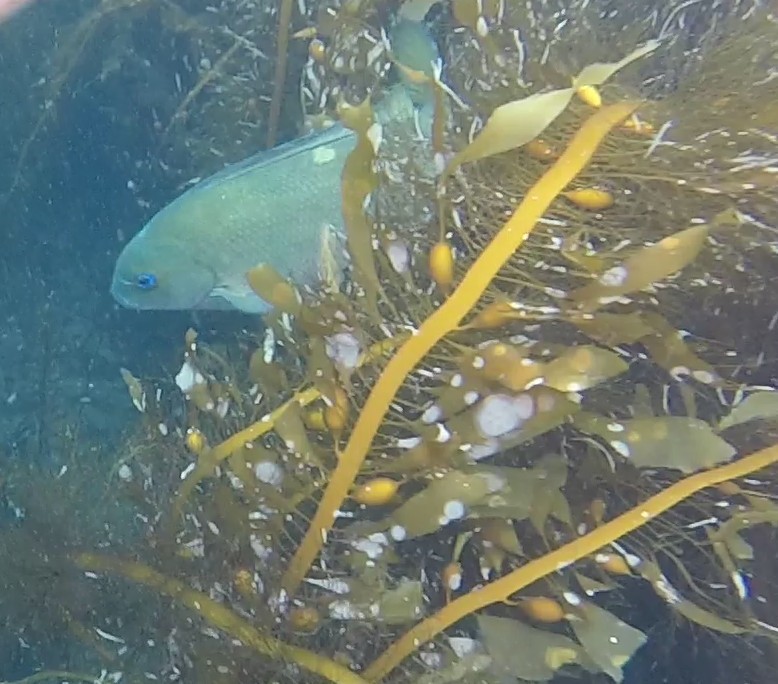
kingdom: Animalia
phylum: Chordata
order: Perciformes
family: Kyphosidae
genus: Girella
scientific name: Girella nigricans
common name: Opaleye
